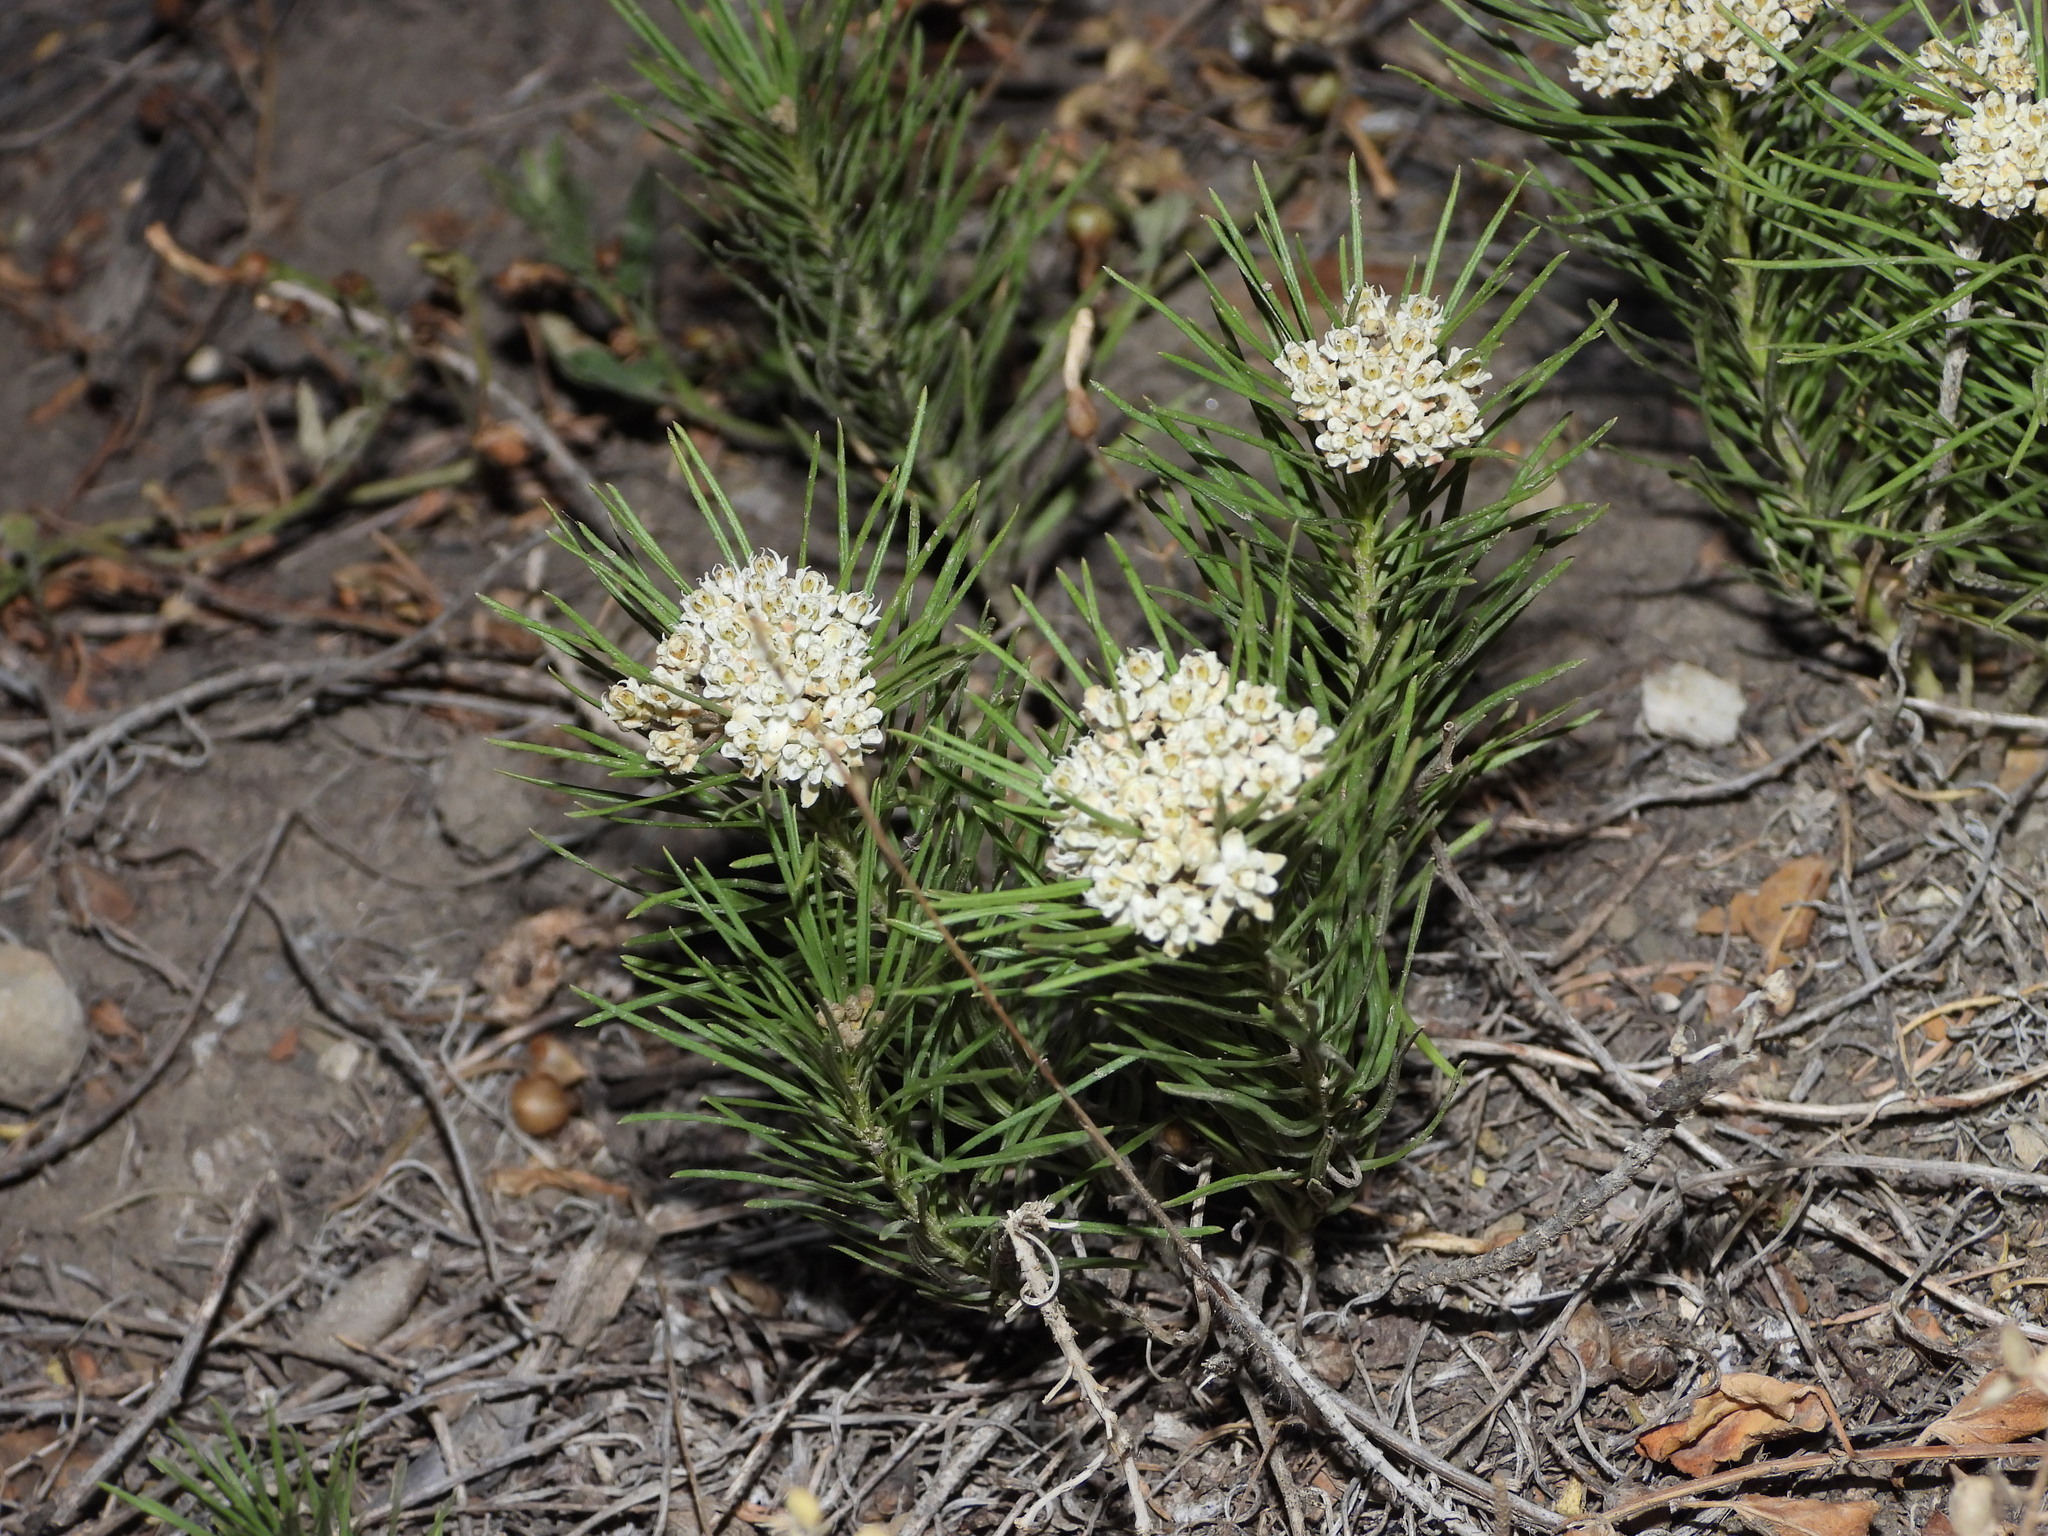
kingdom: Plantae
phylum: Tracheophyta
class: Magnoliopsida
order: Gentianales
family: Apocynaceae
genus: Asclepias
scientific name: Asclepias pumila
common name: Dwarf milkweed
